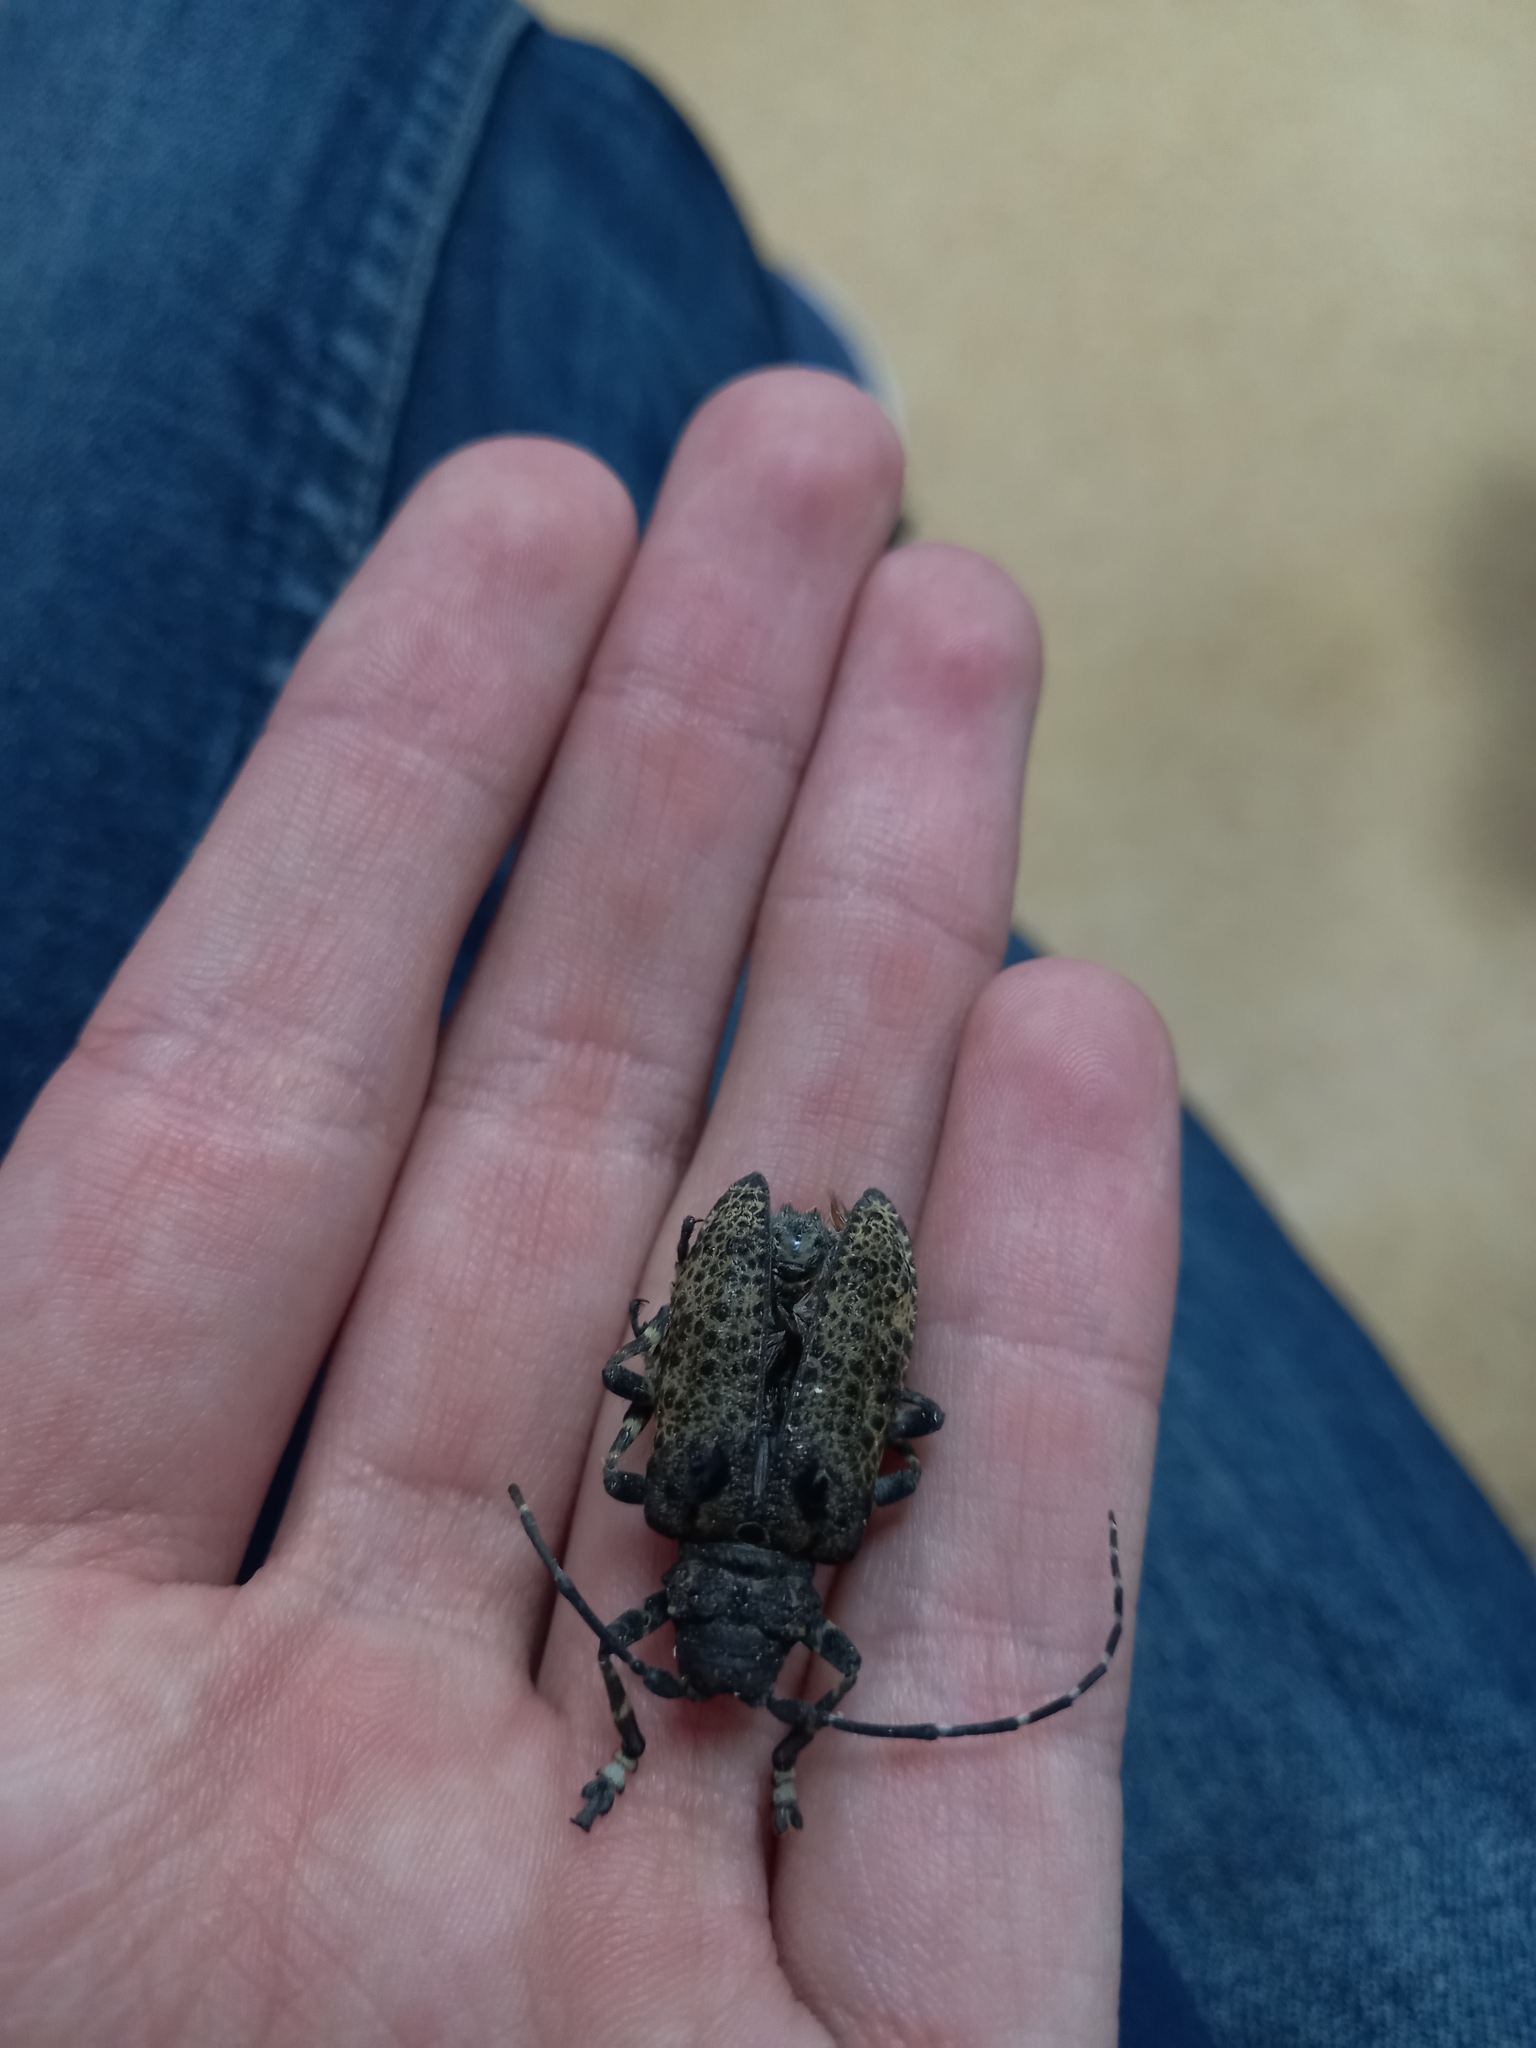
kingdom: Animalia
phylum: Arthropoda
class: Insecta
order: Coleoptera
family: Cerambycidae
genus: Moechotypa
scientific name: Moechotypa diphysis
